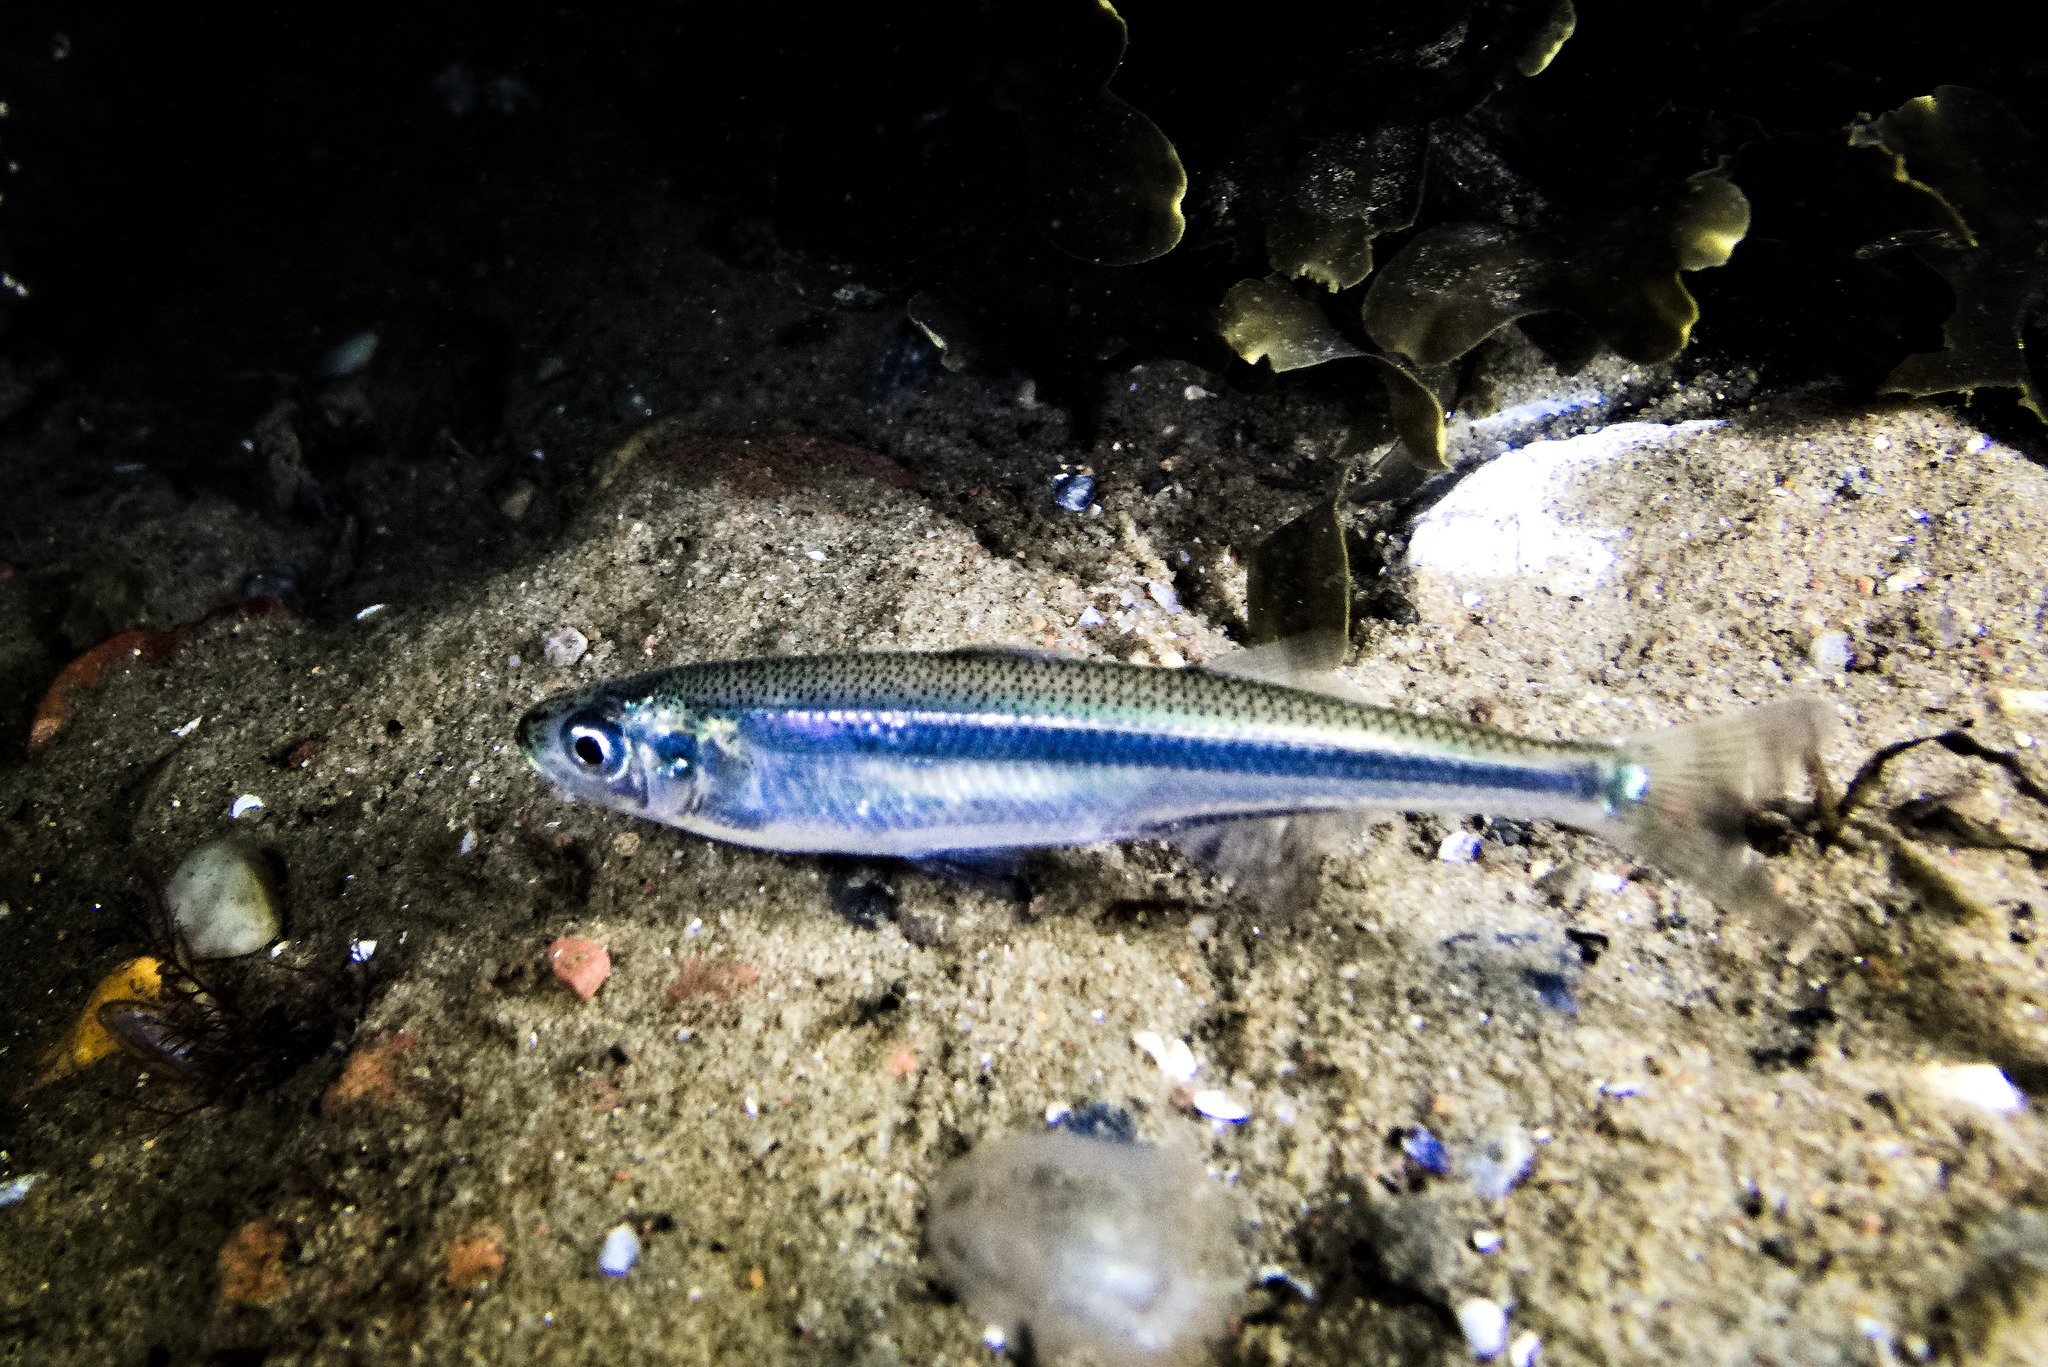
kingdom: Animalia
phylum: Chordata
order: Atheriniformes
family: Atherinidae
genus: Atherina
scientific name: Atherina presbyter
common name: Sand smelt
